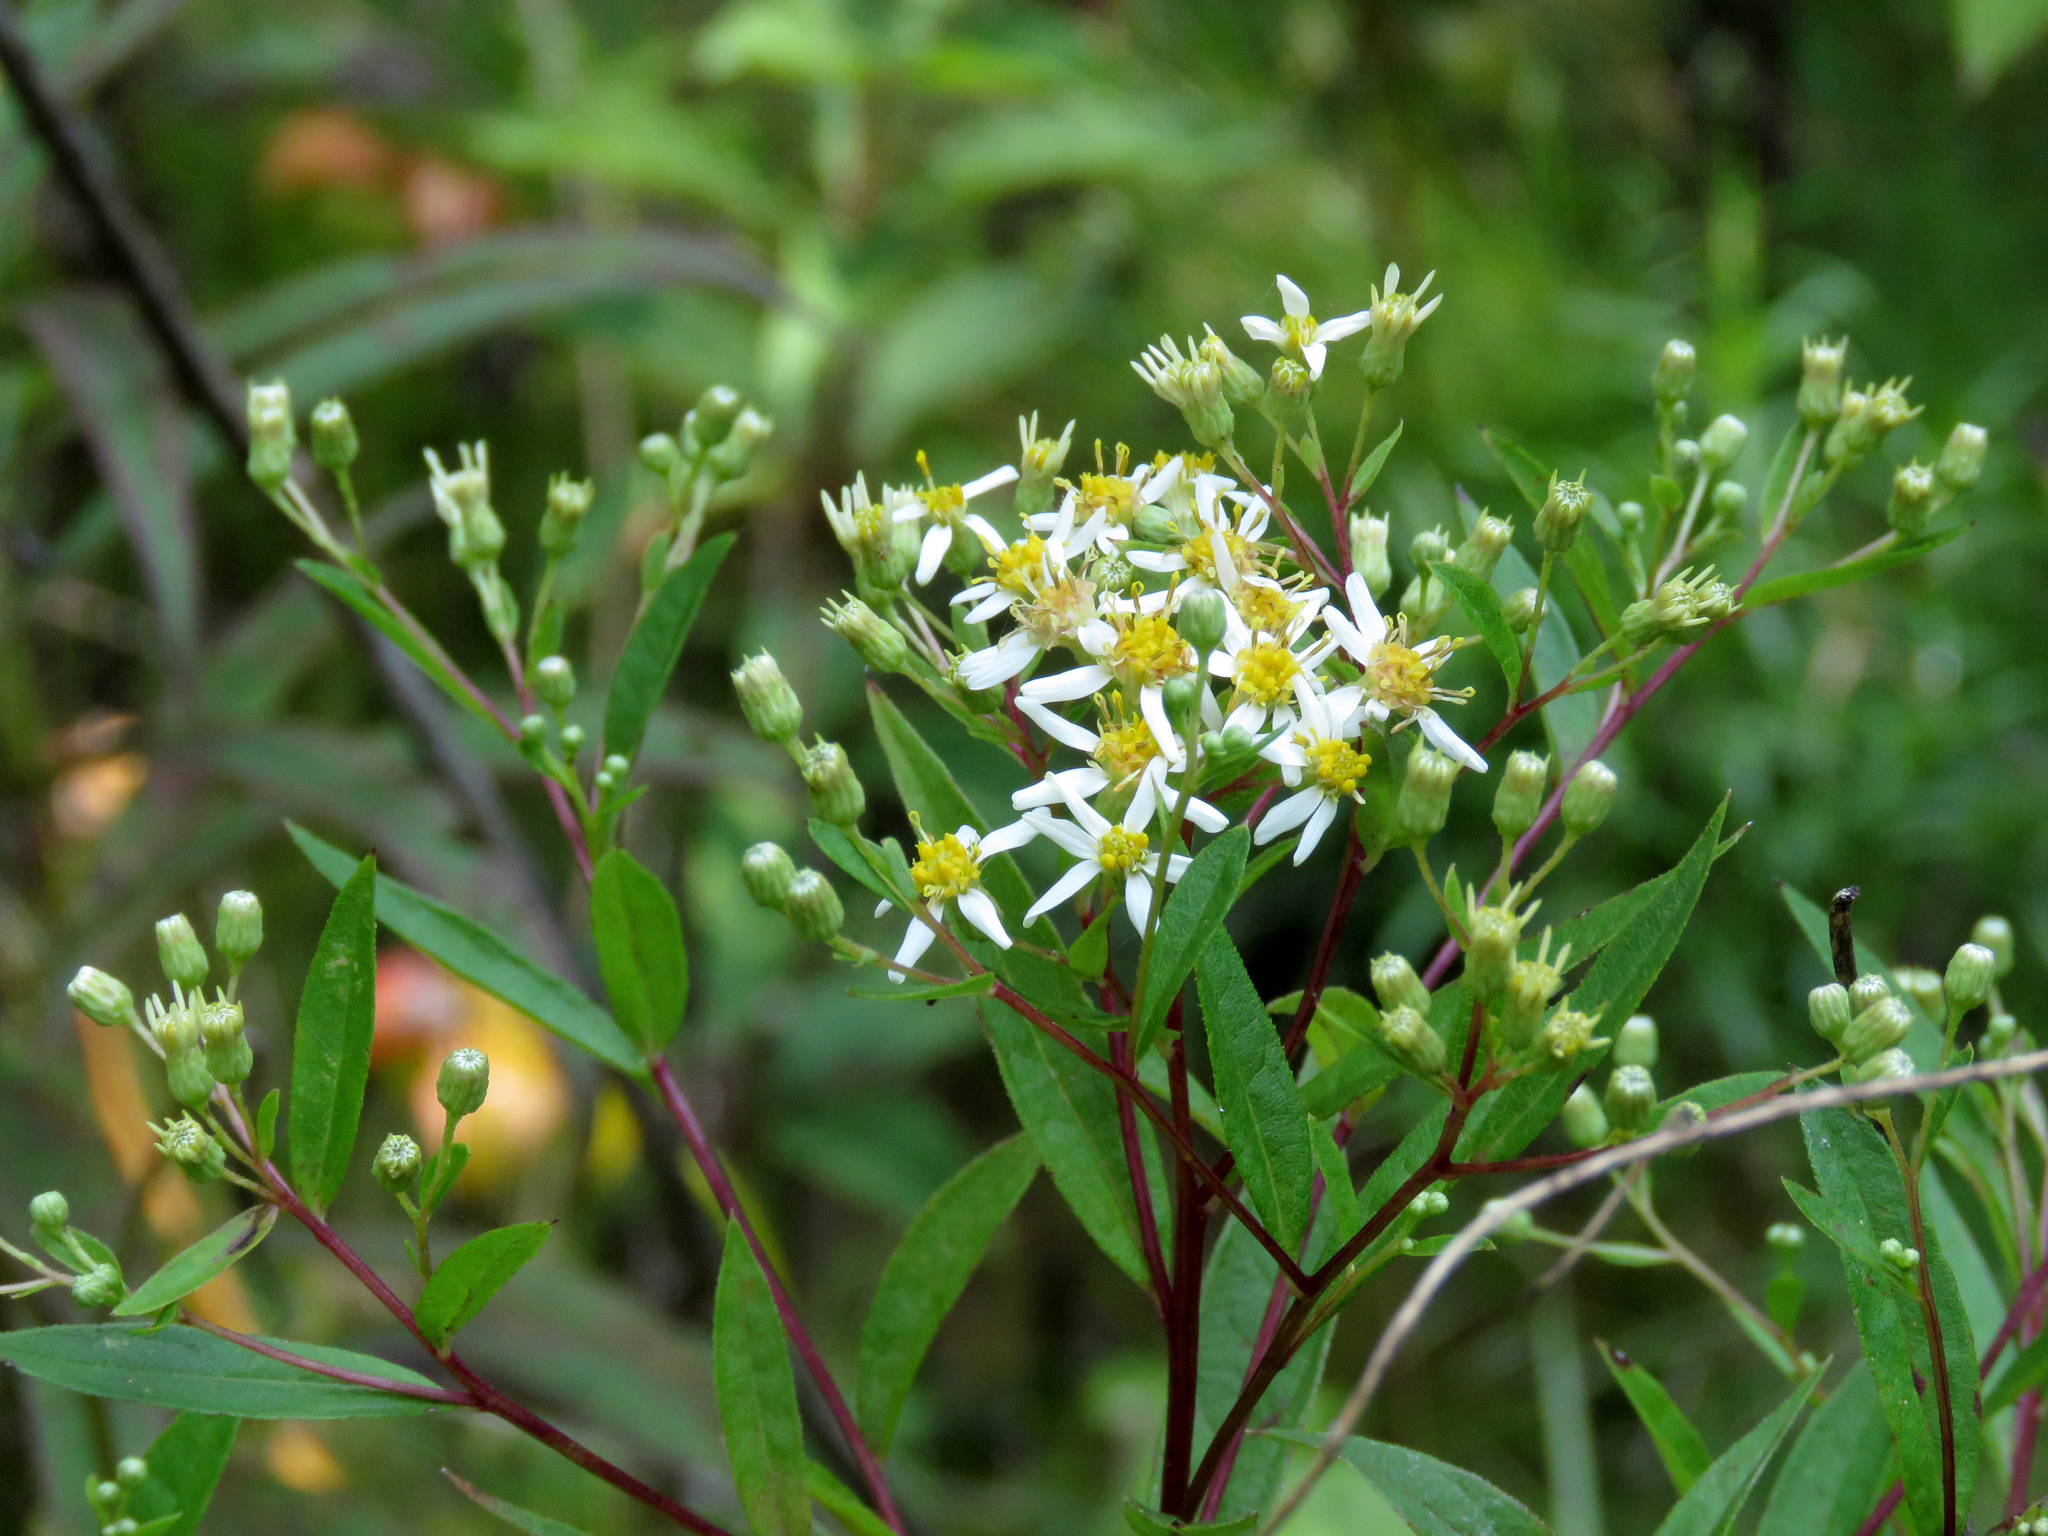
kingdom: Plantae
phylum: Tracheophyta
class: Magnoliopsida
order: Asterales
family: Asteraceae
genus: Doellingeria
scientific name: Doellingeria umbellata
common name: Flat-top white aster
